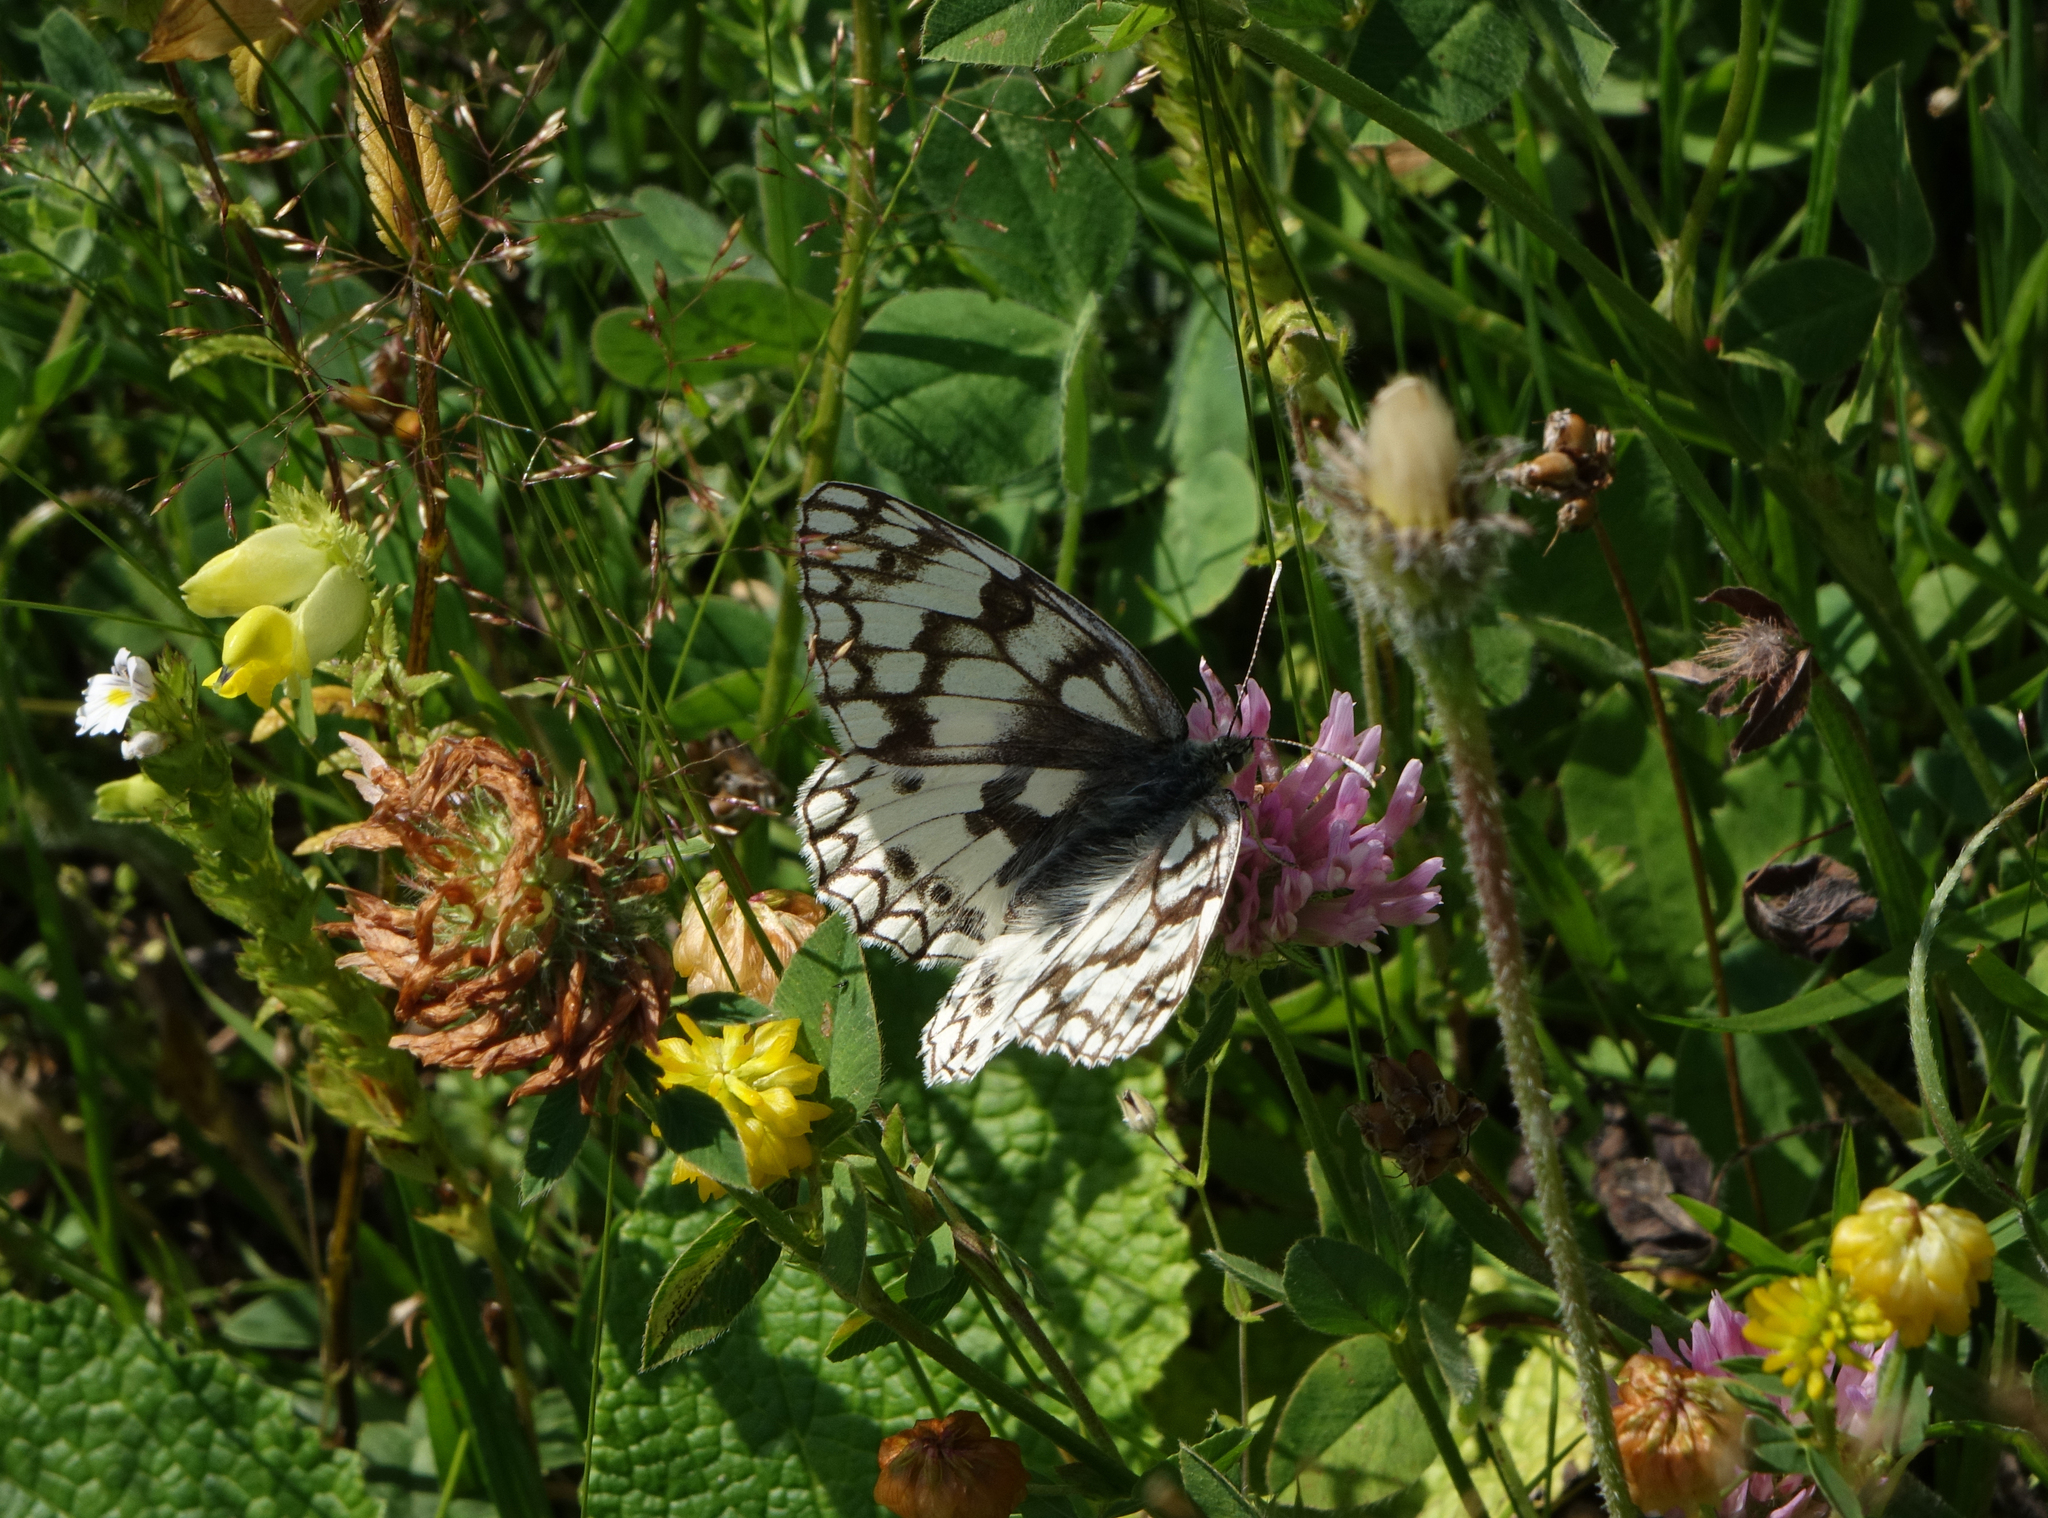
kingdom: Animalia
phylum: Arthropoda
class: Insecta
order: Lepidoptera
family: Nymphalidae
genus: Melanargia
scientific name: Melanargia japygia
